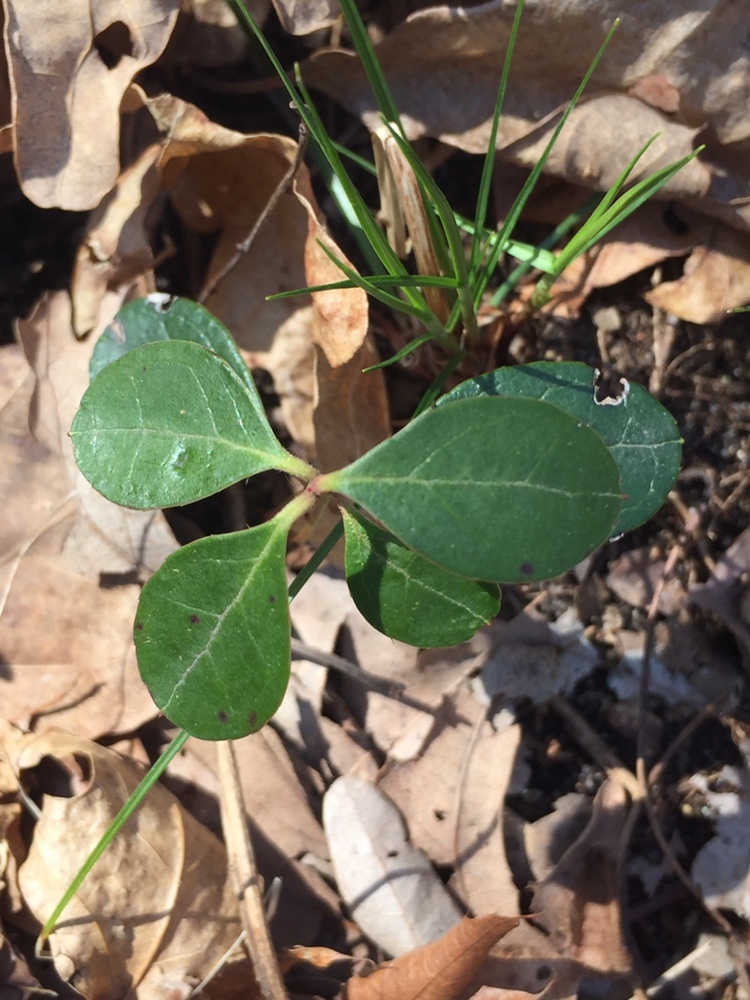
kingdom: Plantae
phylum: Tracheophyta
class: Magnoliopsida
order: Ericales
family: Ericaceae
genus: Gaultheria
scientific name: Gaultheria procumbens
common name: Checkerberry
